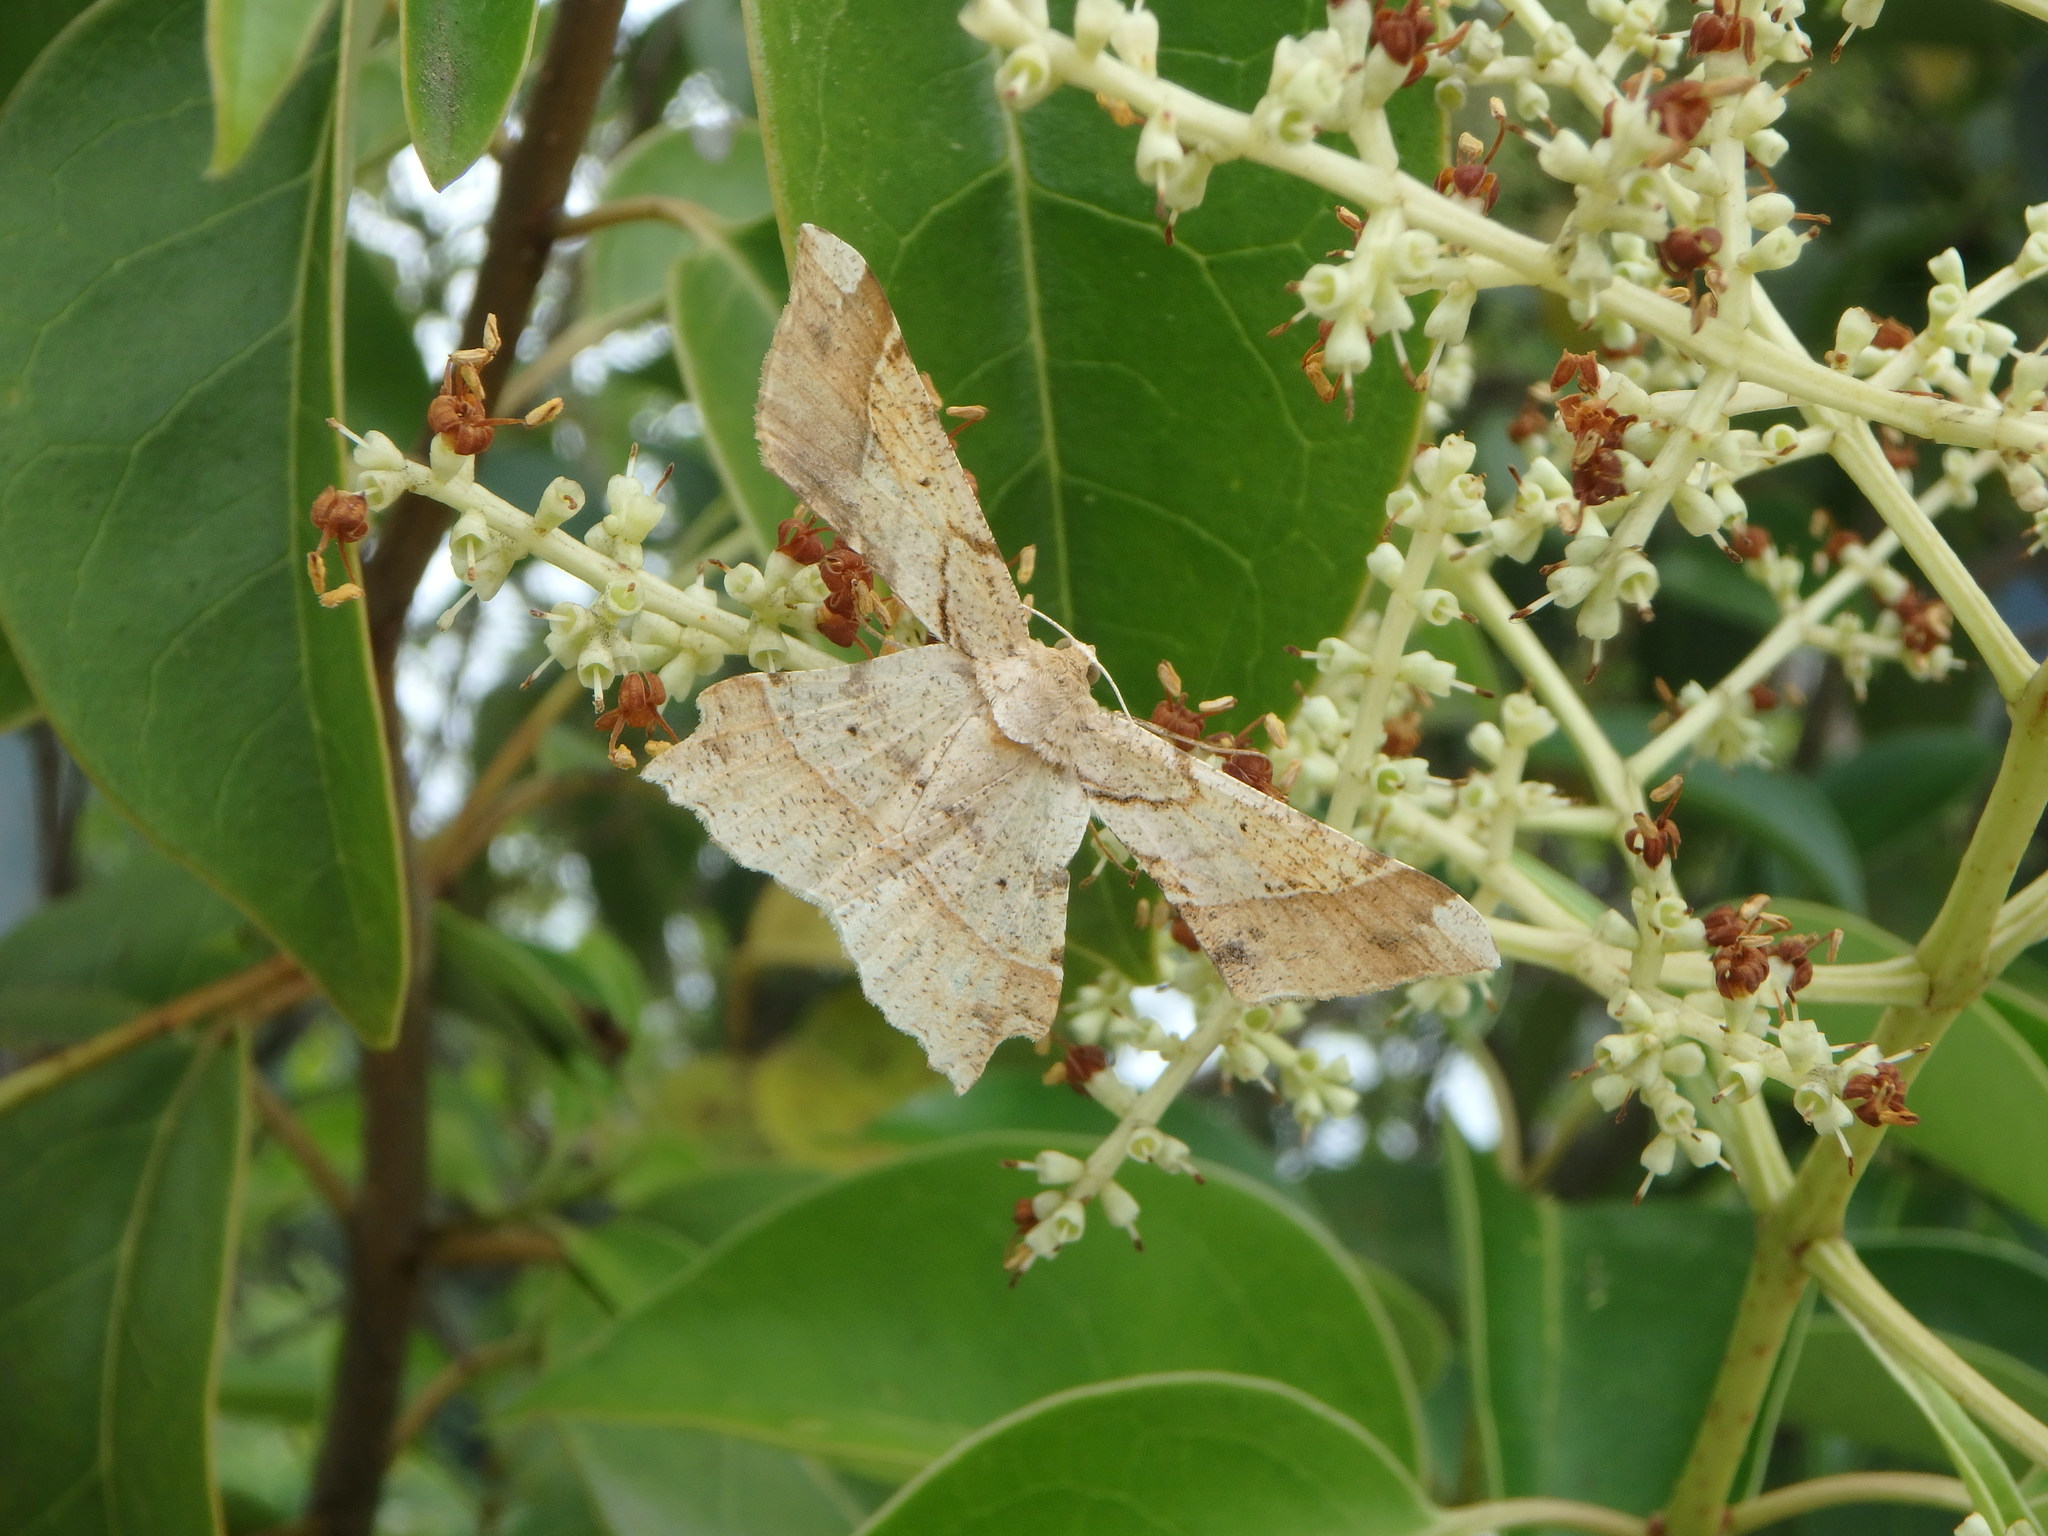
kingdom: Animalia
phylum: Arthropoda
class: Insecta
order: Lepidoptera
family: Geometridae
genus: Krananda
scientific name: Krananda latimarginaria
